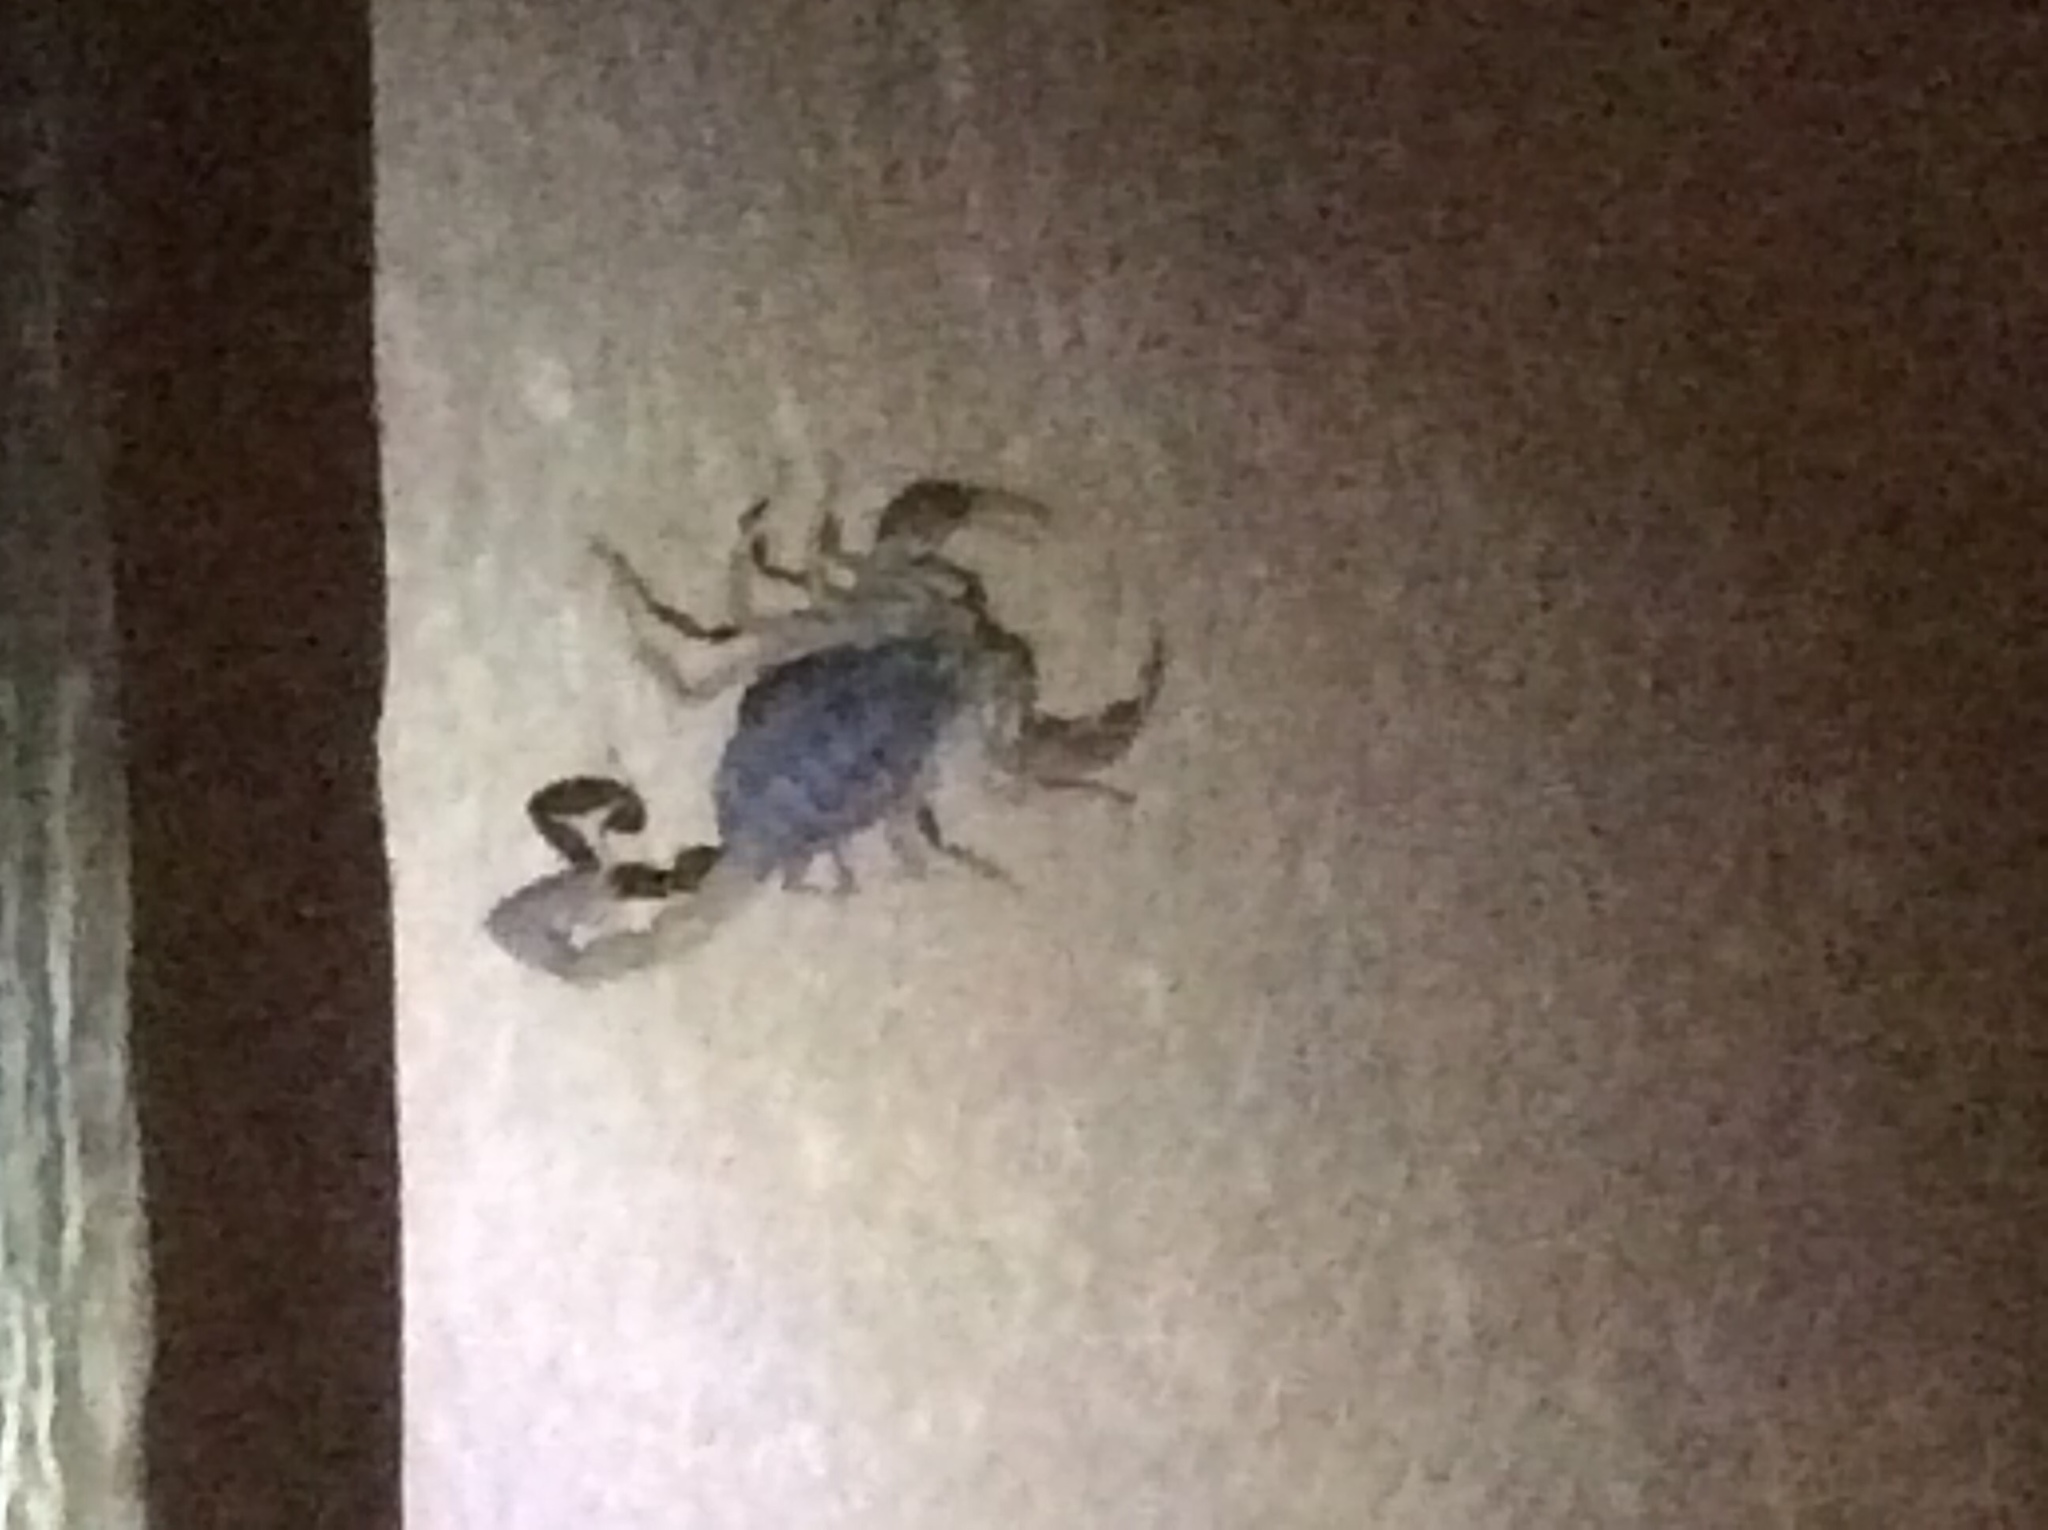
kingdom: Animalia
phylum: Arthropoda
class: Arachnida
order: Scorpiones
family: Buthidae
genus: Centruroides
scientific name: Centruroides vittatus
